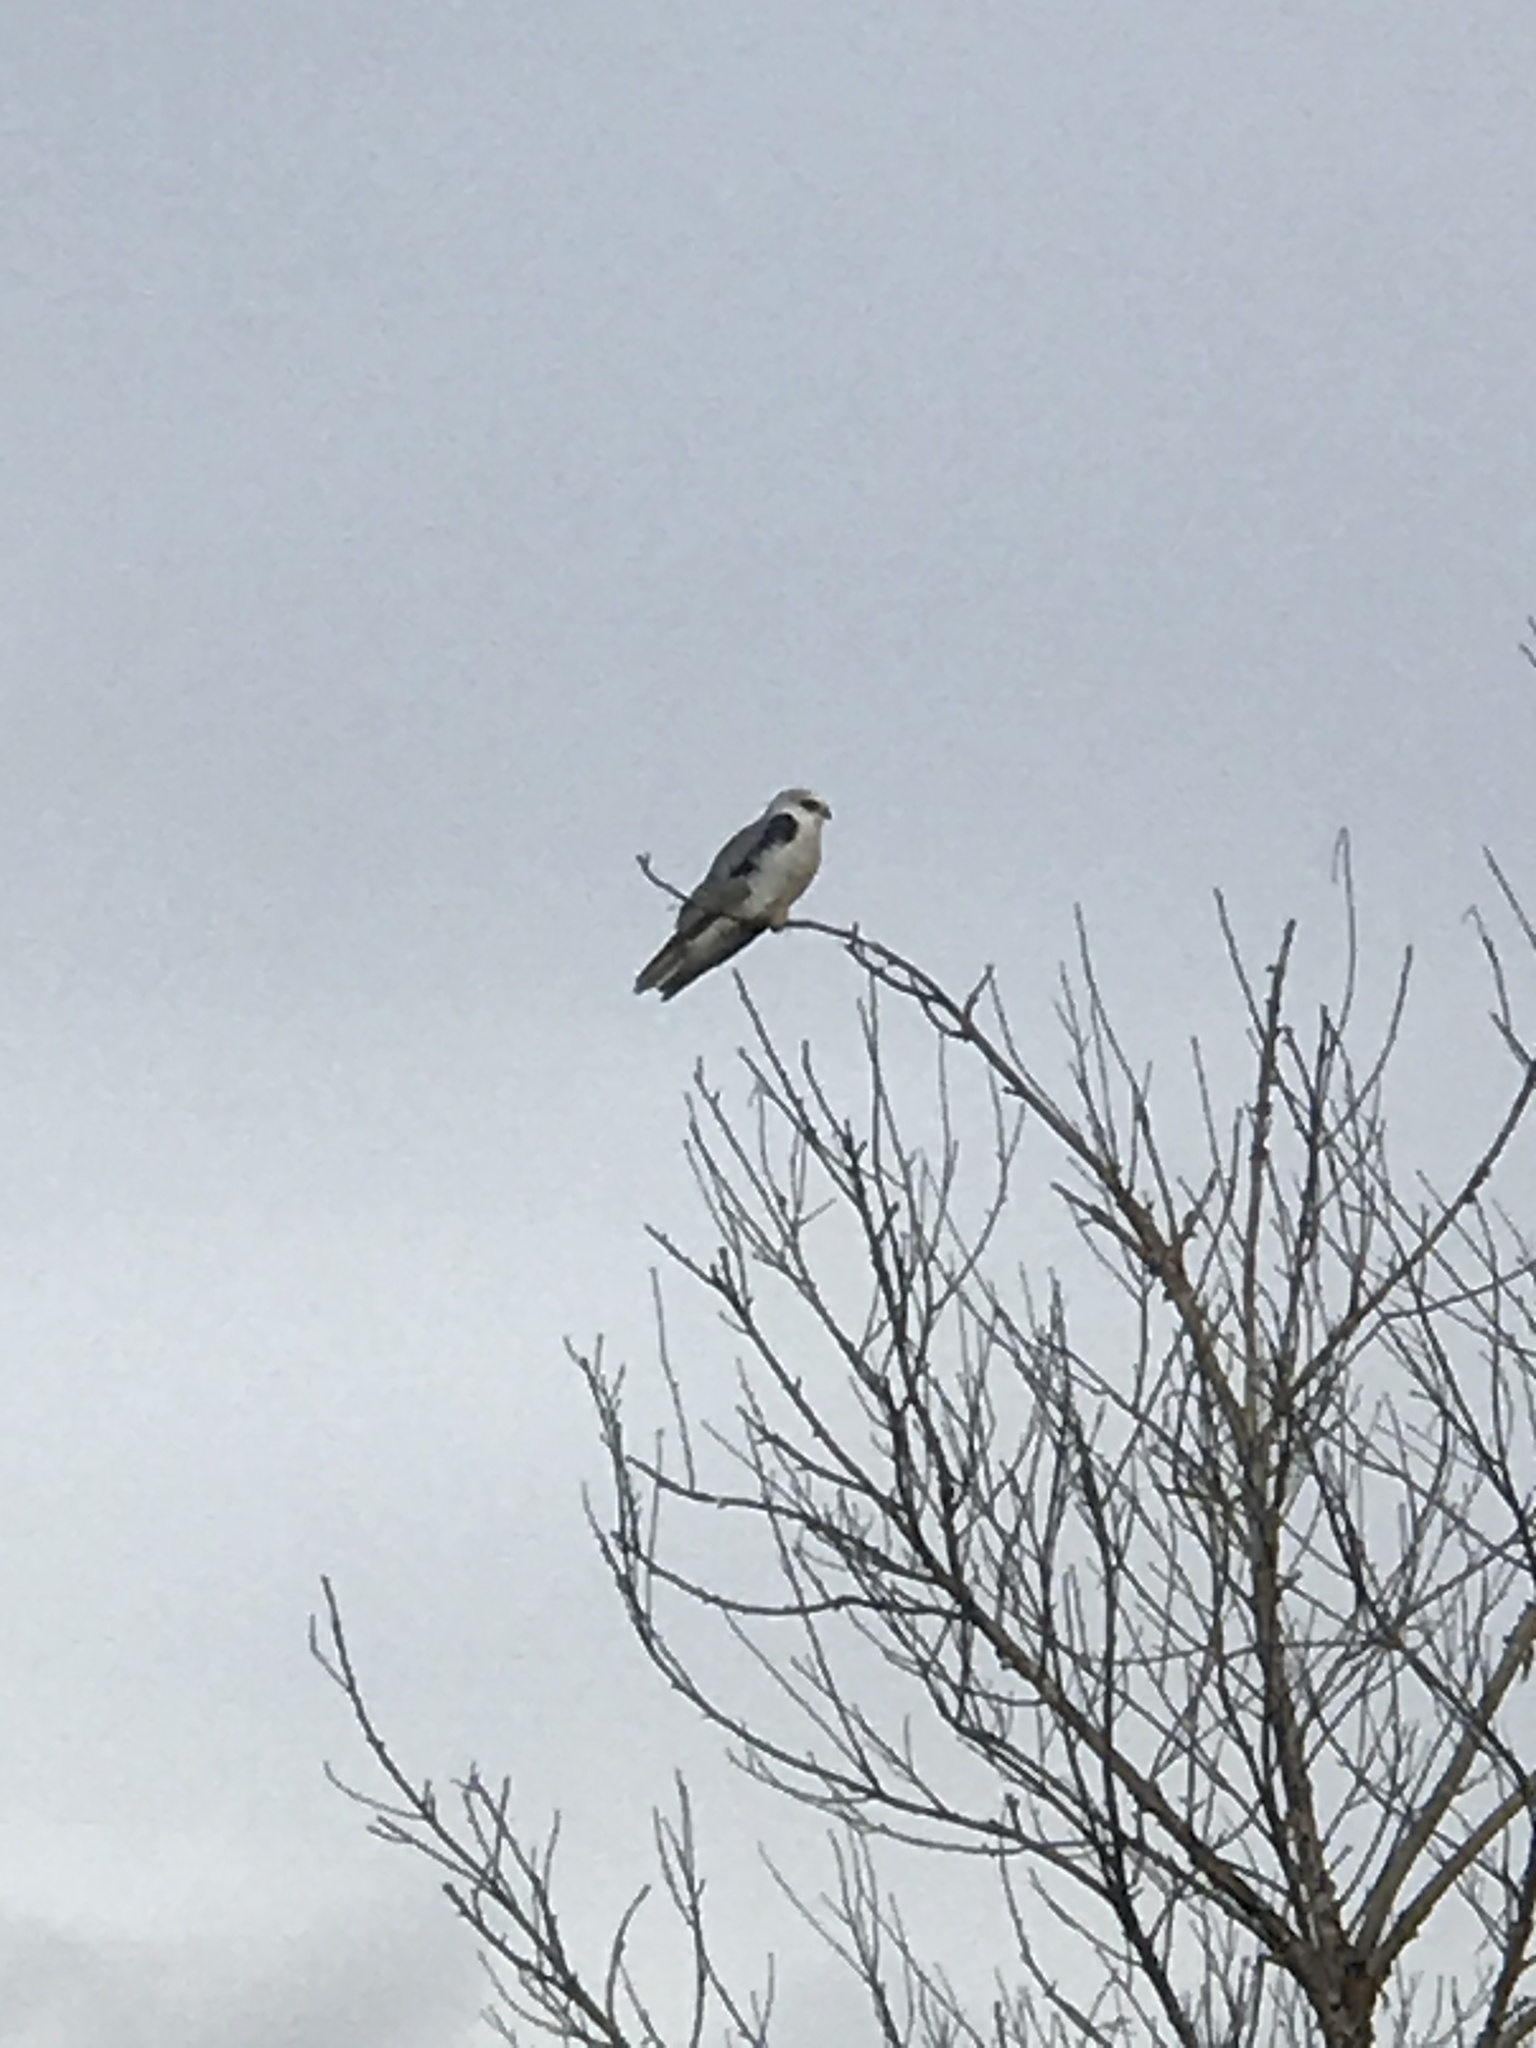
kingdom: Animalia
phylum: Chordata
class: Aves
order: Accipitriformes
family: Accipitridae
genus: Elanus
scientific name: Elanus leucurus
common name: White-tailed kite
